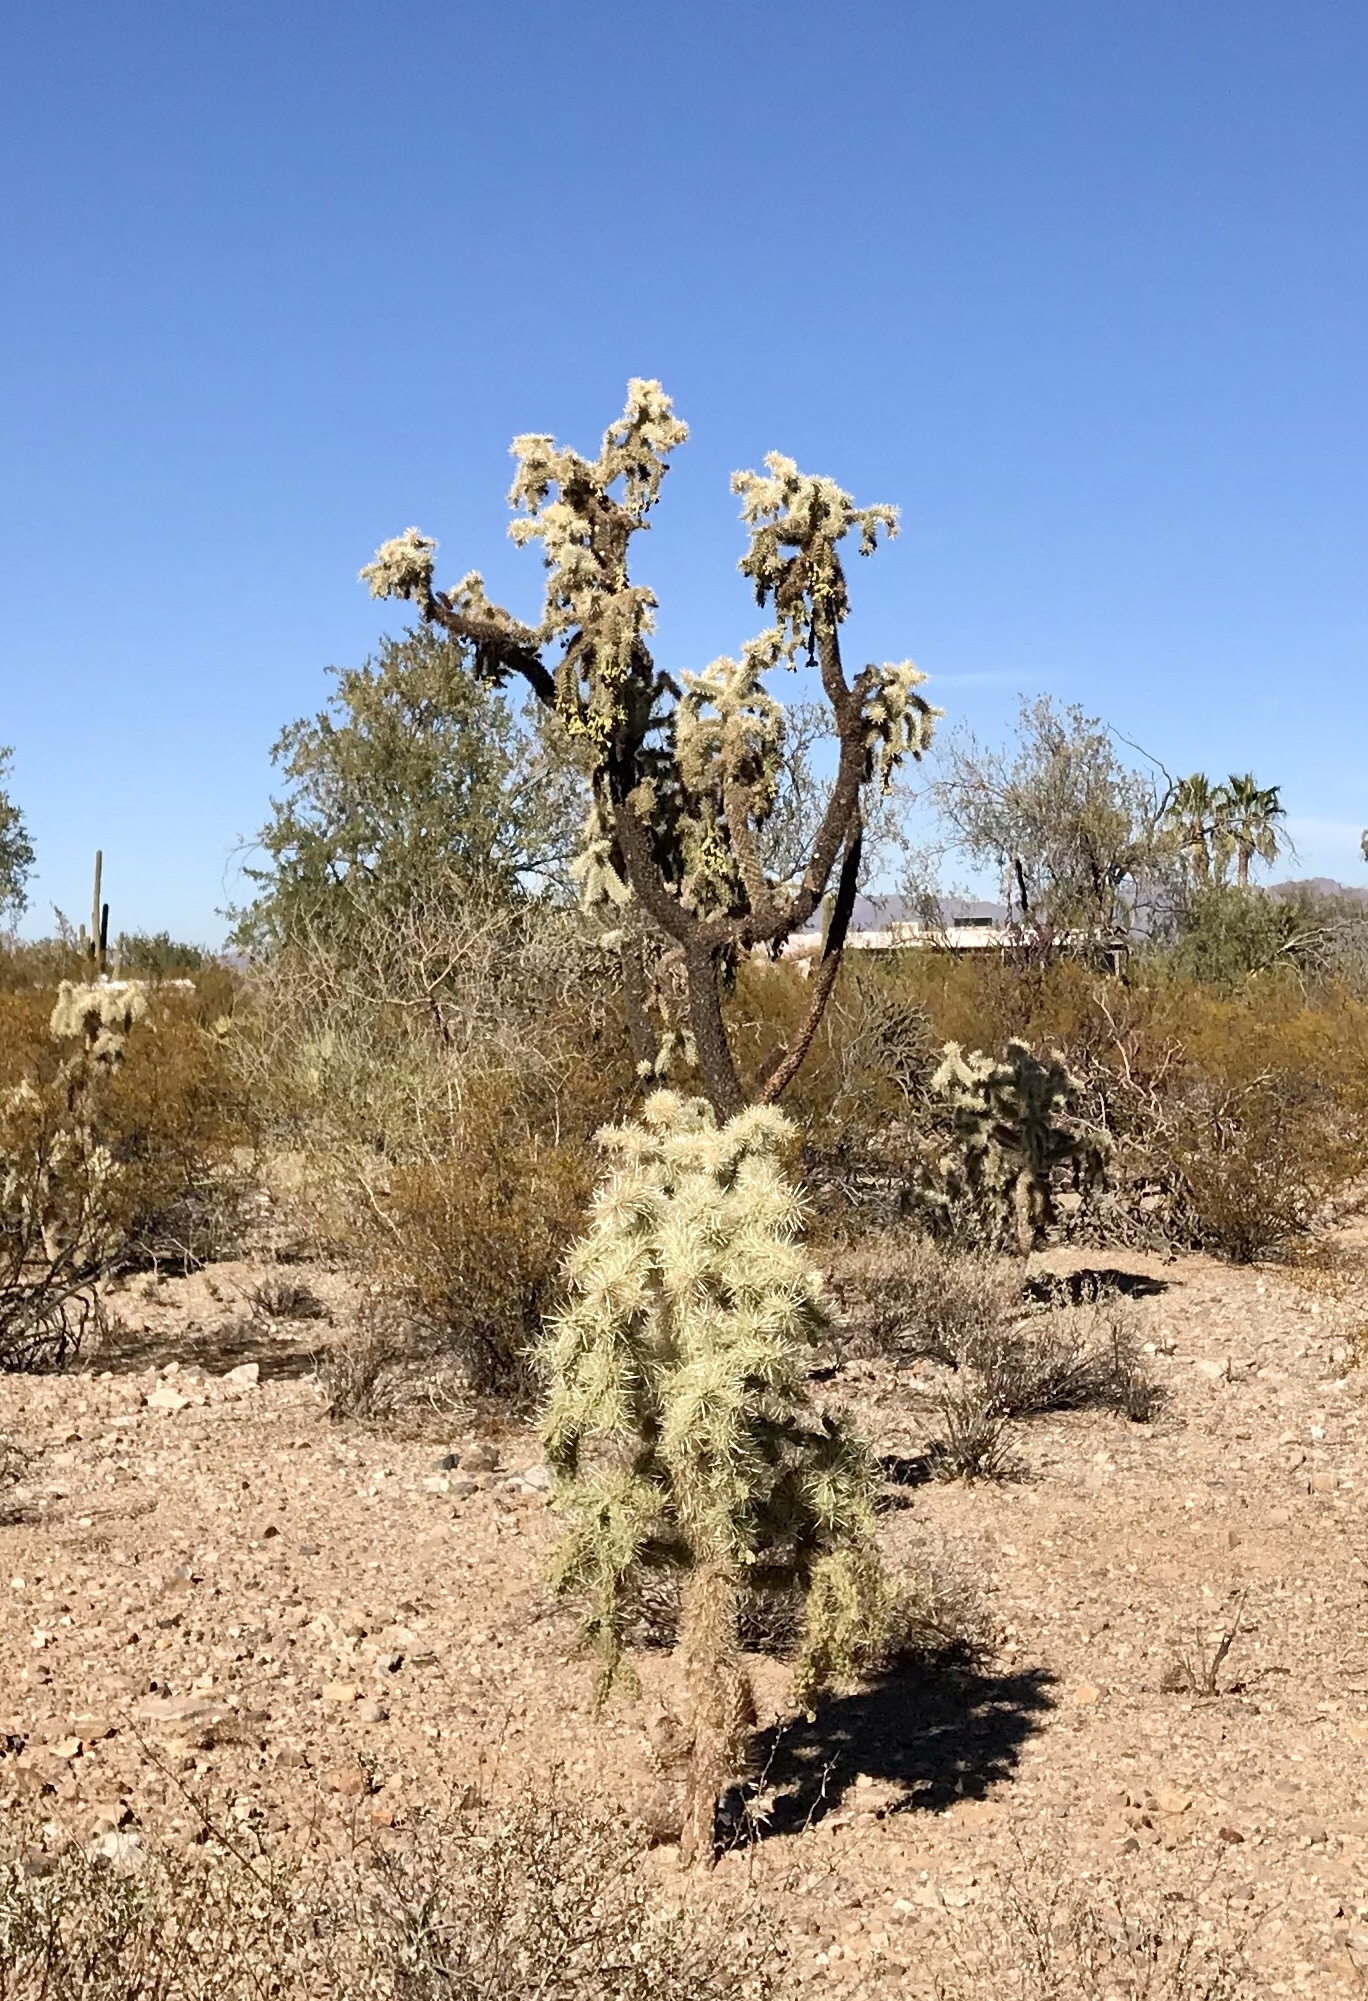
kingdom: Plantae
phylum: Tracheophyta
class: Magnoliopsida
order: Caryophyllales
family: Cactaceae
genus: Cylindropuntia
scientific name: Cylindropuntia fulgida
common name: Jumping cholla
